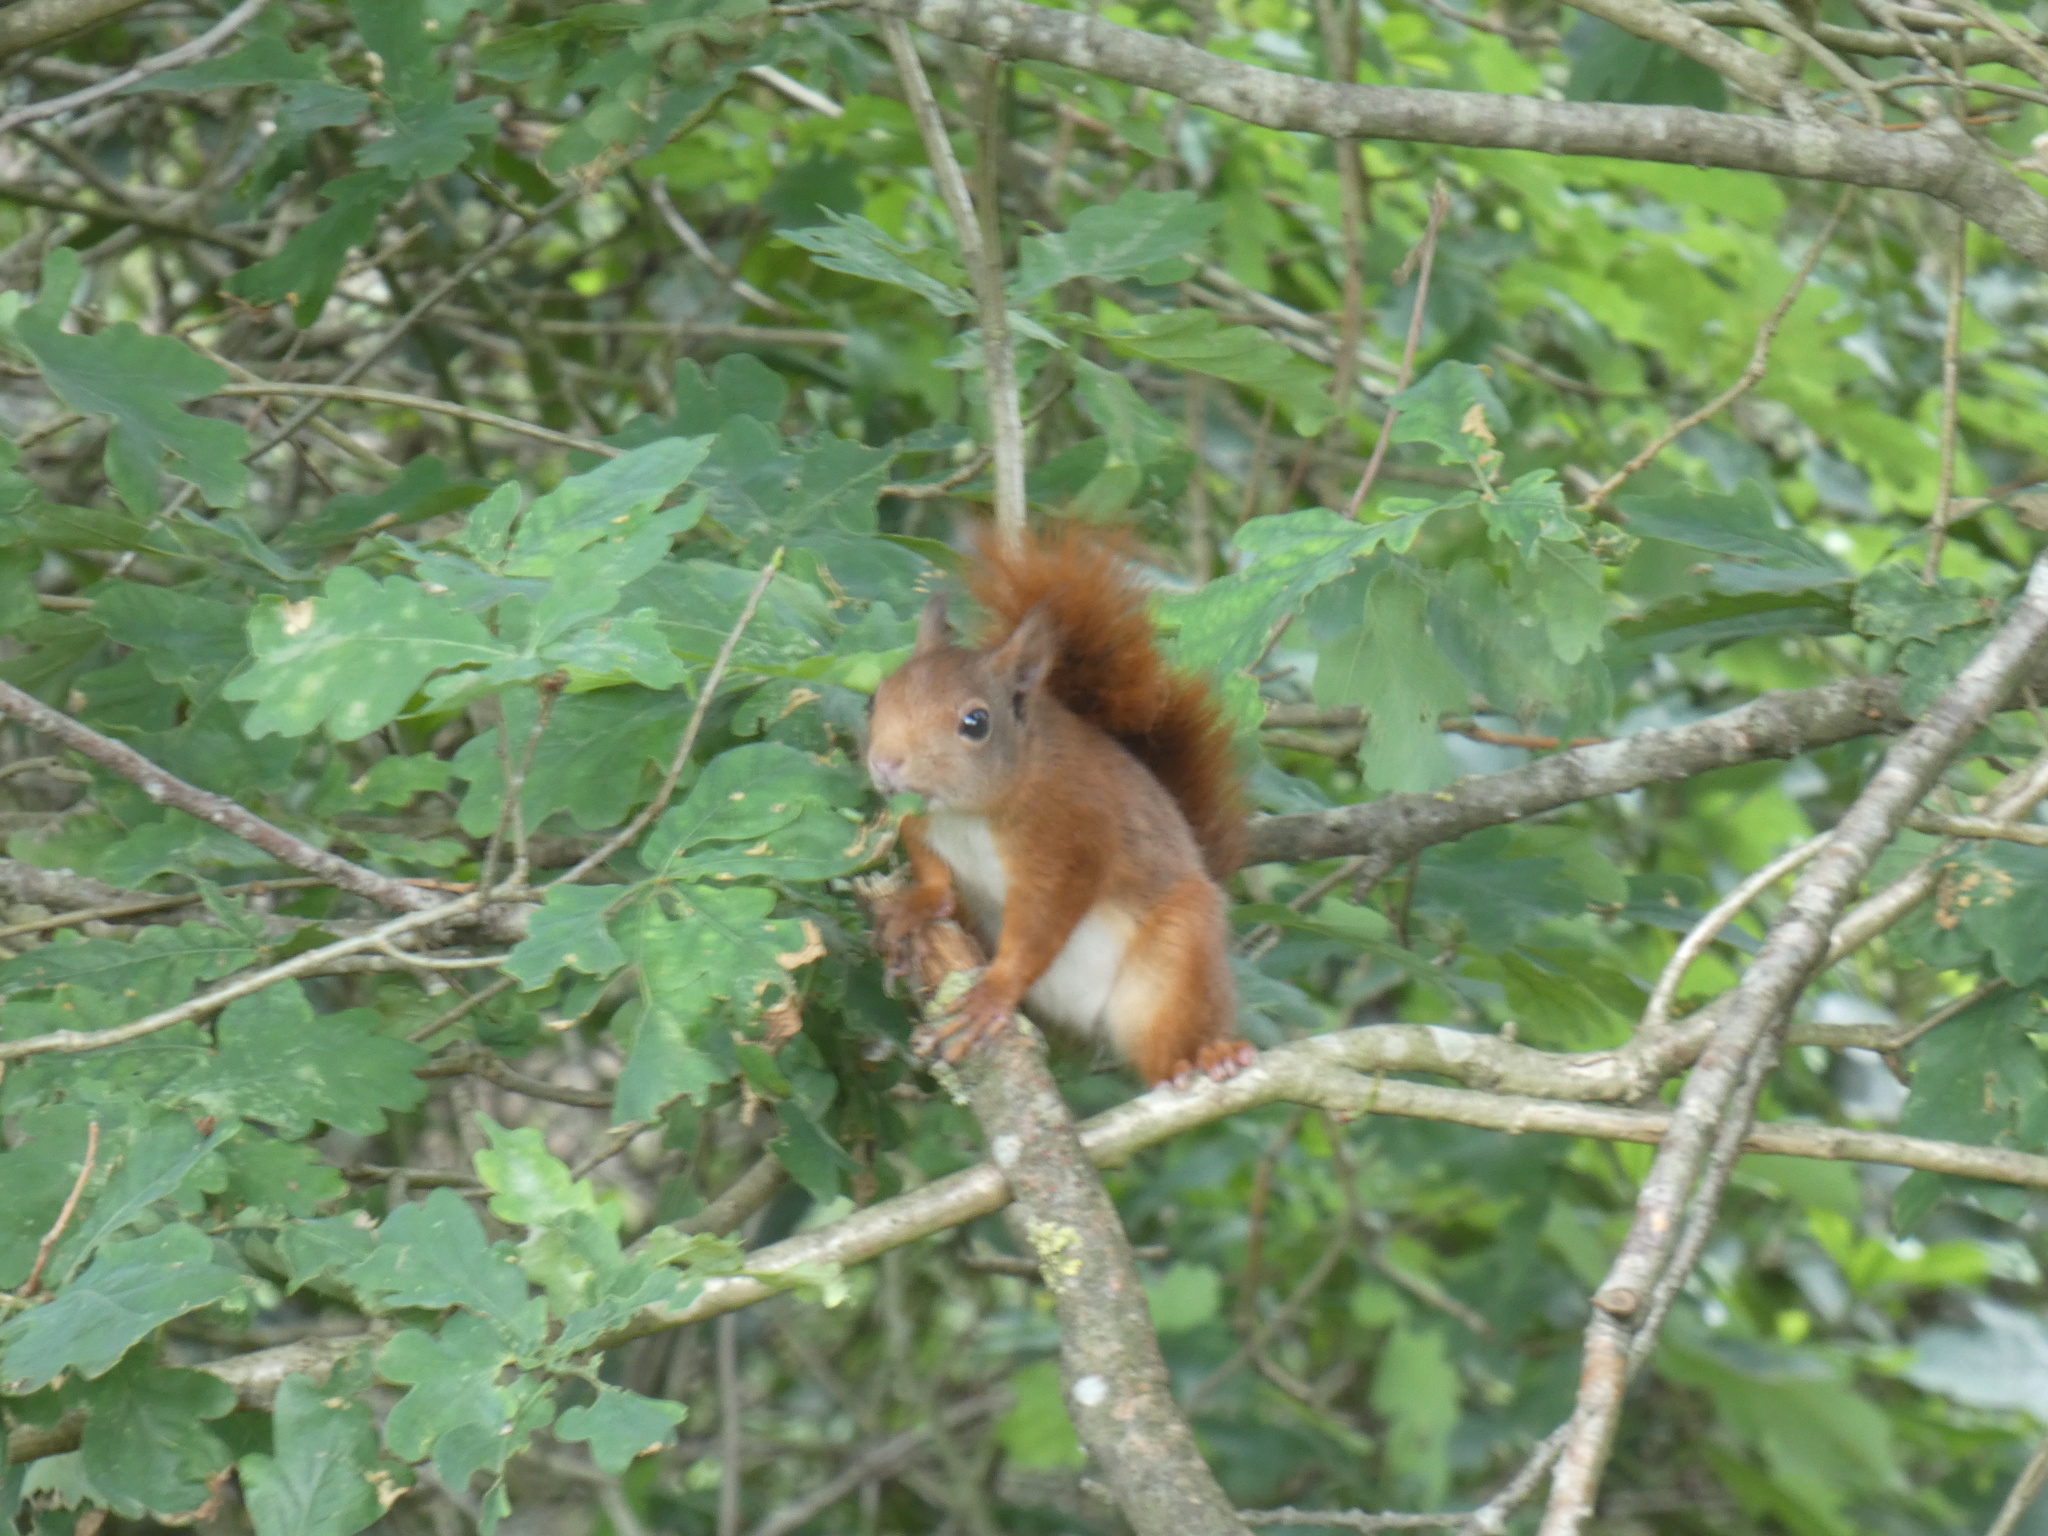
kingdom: Animalia
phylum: Chordata
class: Mammalia
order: Rodentia
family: Sciuridae
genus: Sciurus
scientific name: Sciurus vulgaris
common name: Eurasian red squirrel
